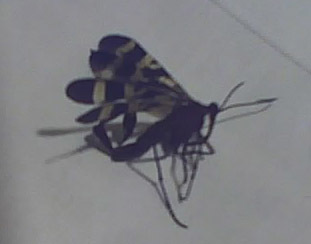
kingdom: Animalia
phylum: Arthropoda
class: Insecta
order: Mecoptera
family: Panorpidae
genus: Panorpa
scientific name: Panorpa nuptialis
